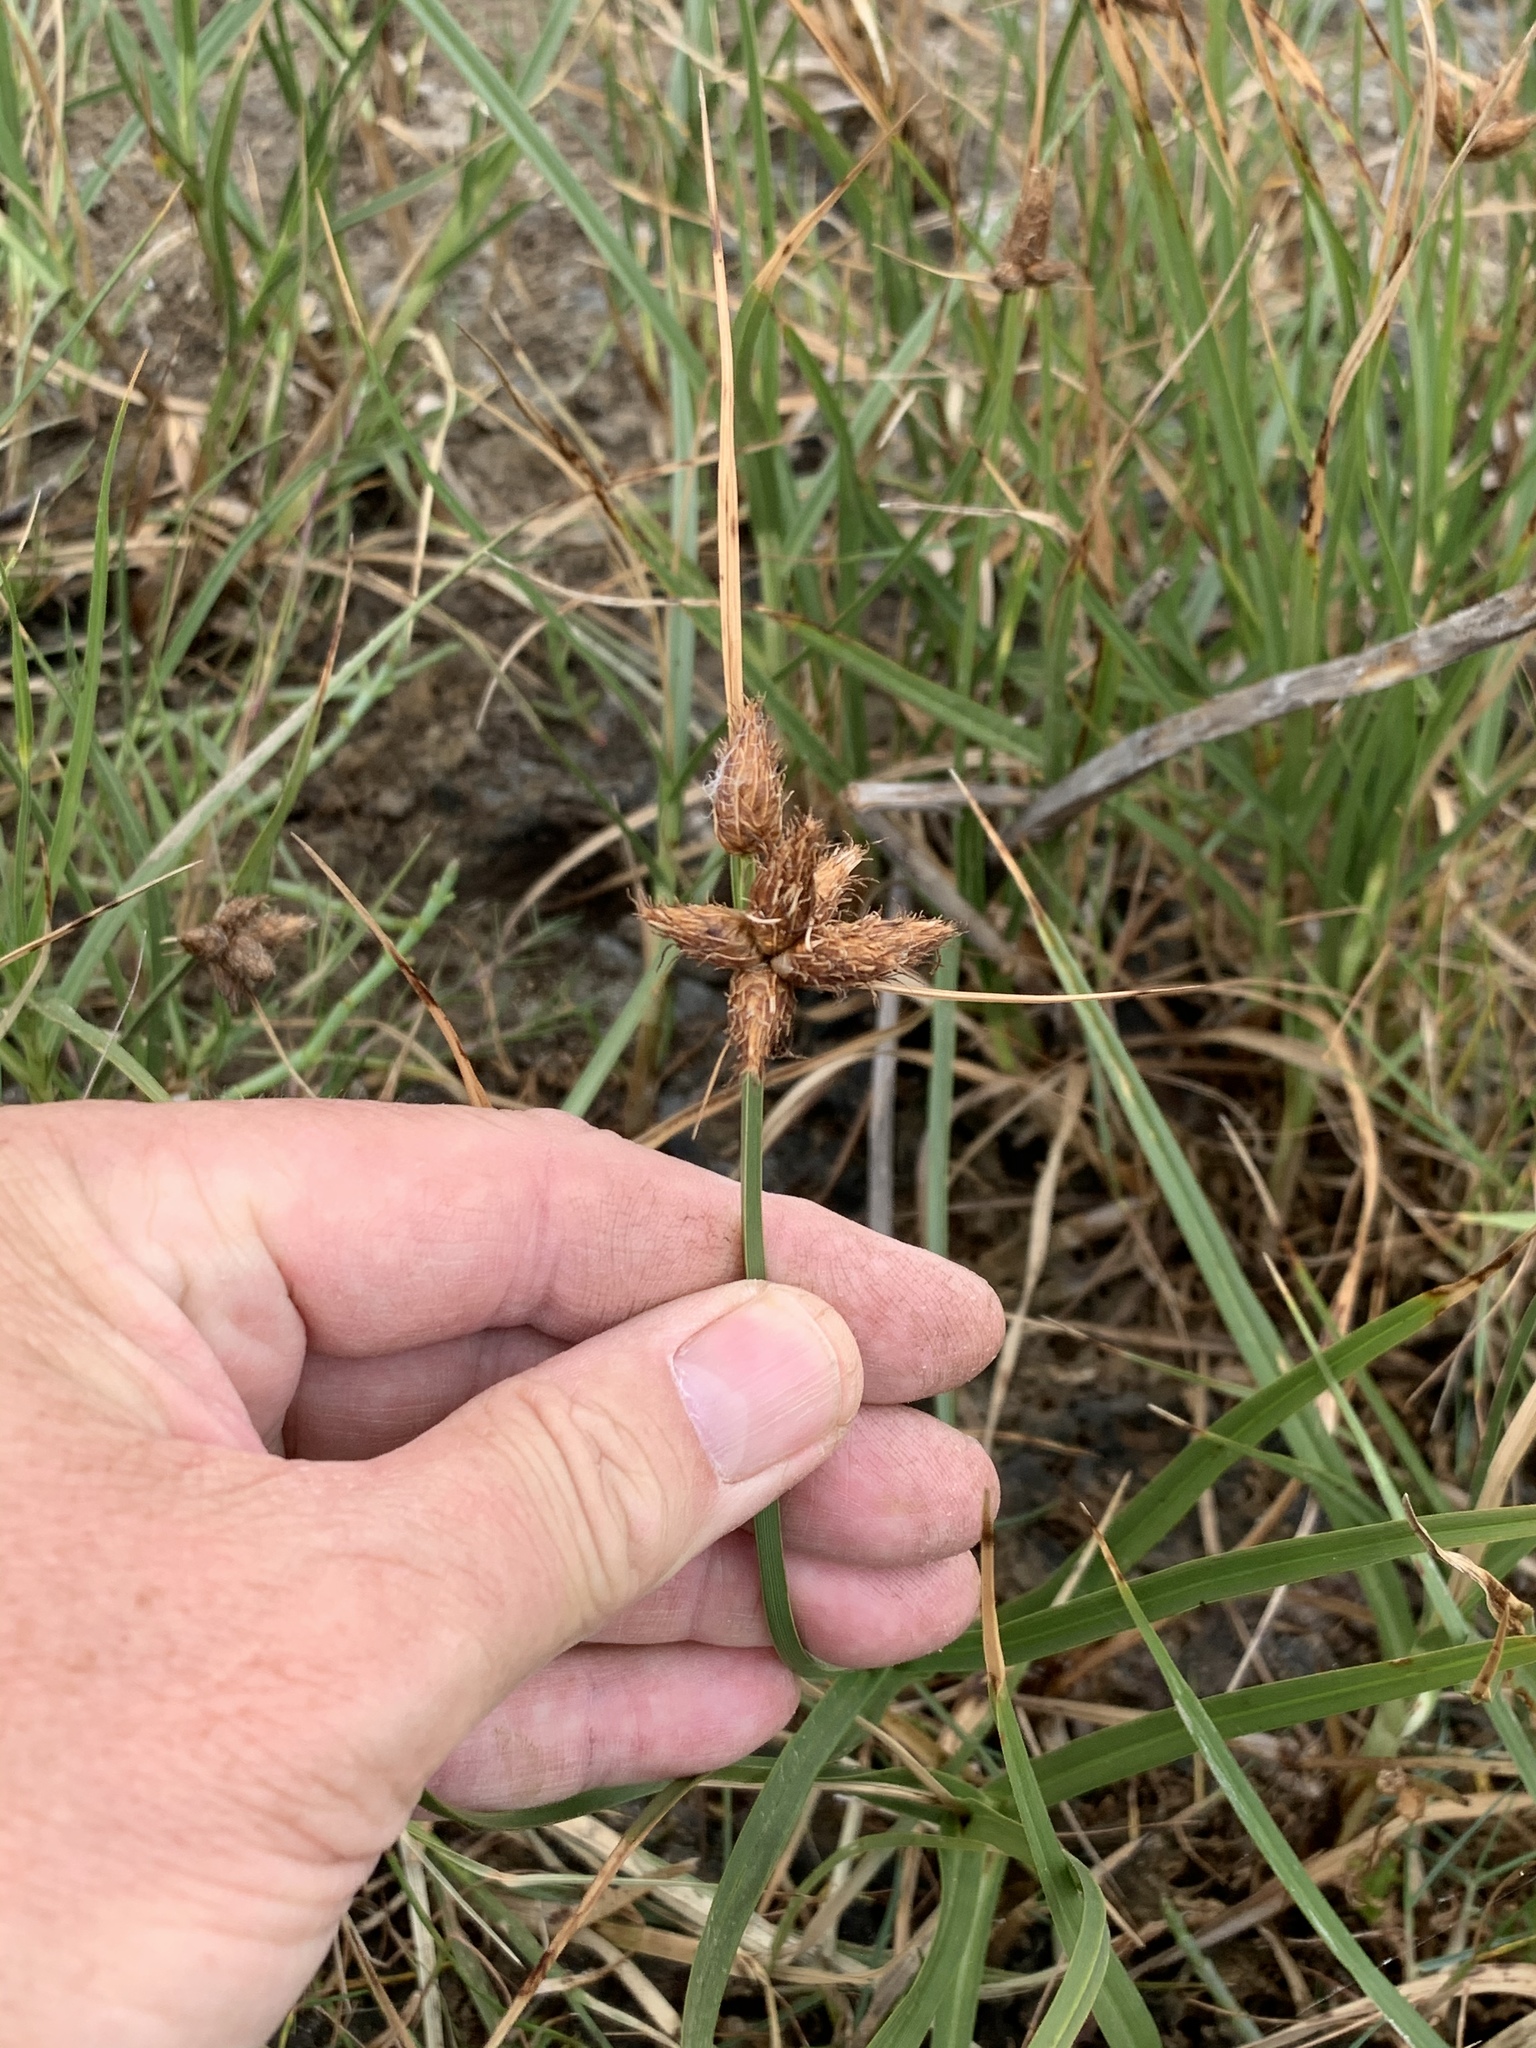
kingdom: Plantae
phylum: Tracheophyta
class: Liliopsida
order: Poales
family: Cyperaceae
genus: Bolboschoenus
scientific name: Bolboschoenus maritimus
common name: Sea club-rush
